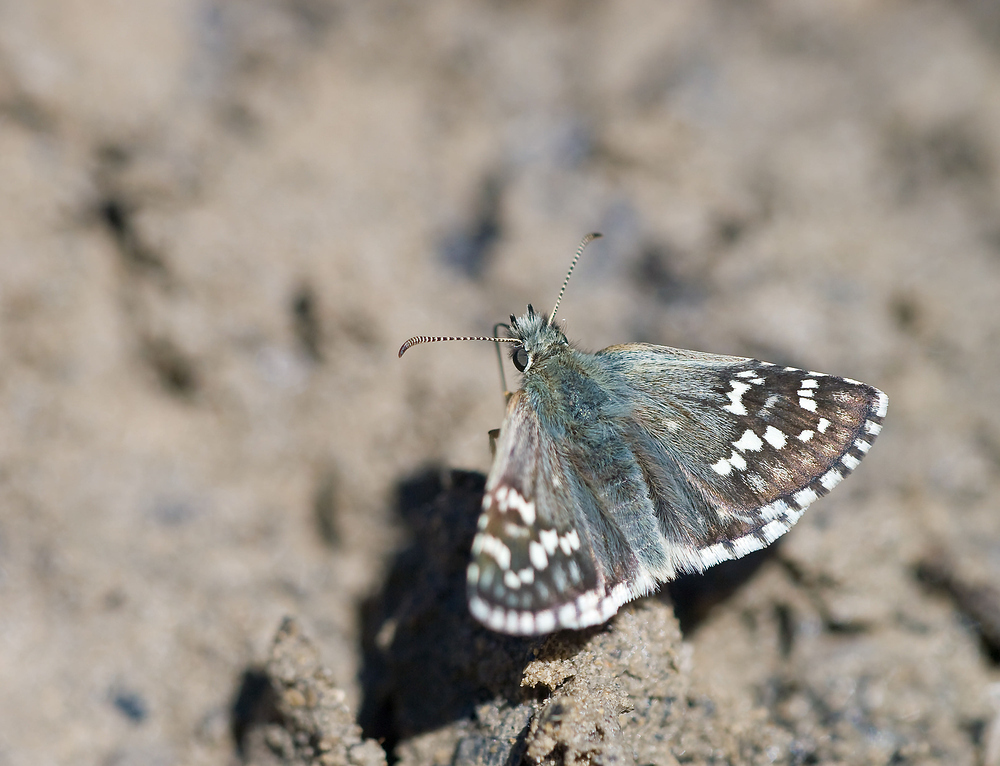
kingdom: Animalia
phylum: Arthropoda
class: Insecta
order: Lepidoptera
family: Hesperiidae
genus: Pyrgus
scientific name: Pyrgus fritillarius
